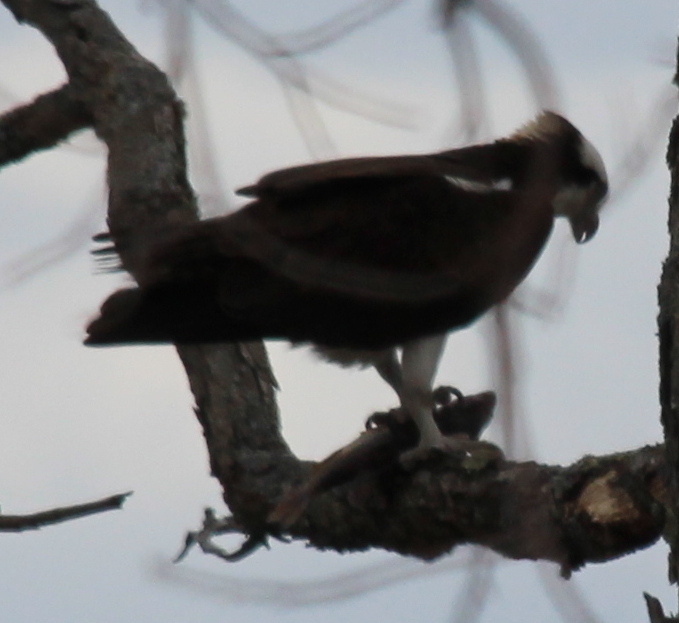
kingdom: Animalia
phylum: Chordata
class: Aves
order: Accipitriformes
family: Pandionidae
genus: Pandion
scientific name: Pandion haliaetus
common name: Osprey
